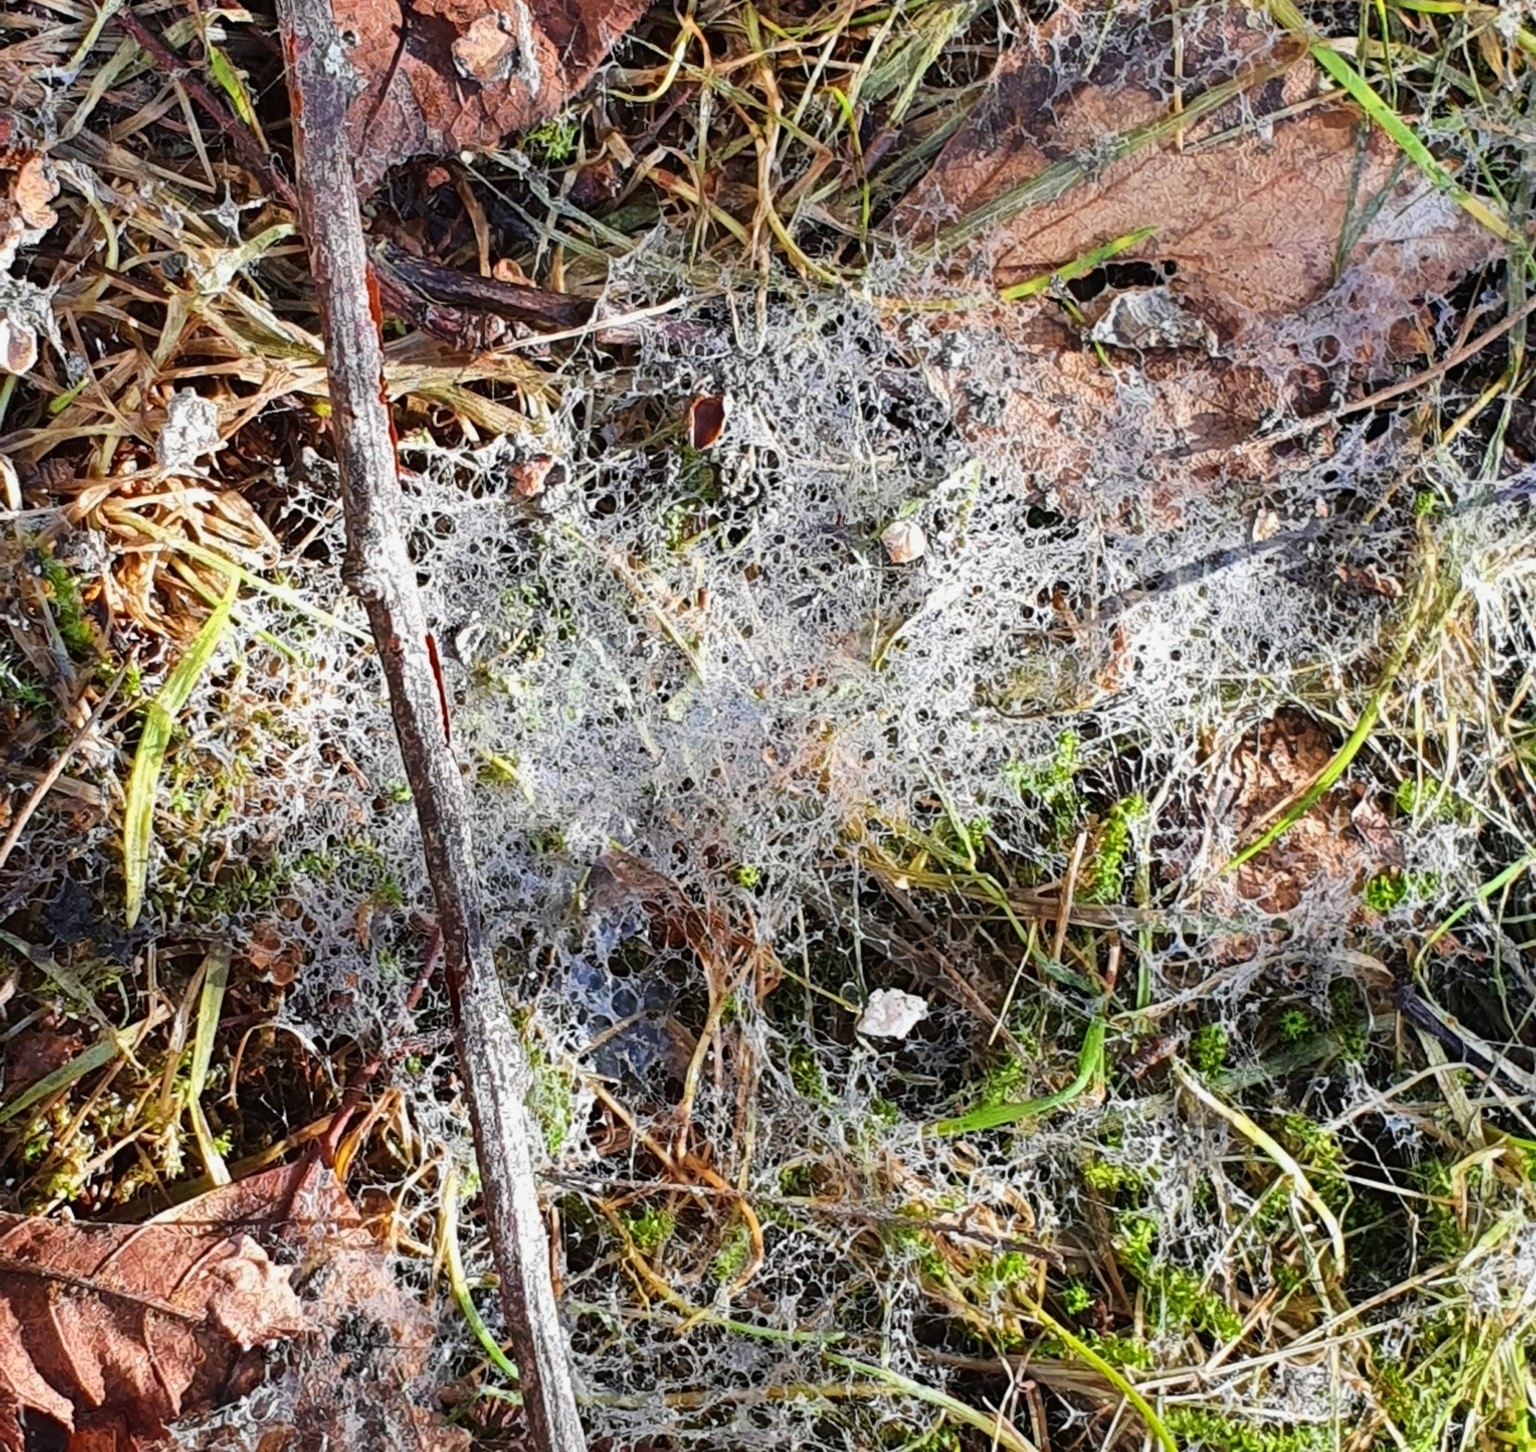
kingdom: Fungi
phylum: Ascomycota
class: Sordariomycetes
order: Amphisphaeriales
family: Amphisphaeriaceae
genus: Microdochium
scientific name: Microdochium nivale
